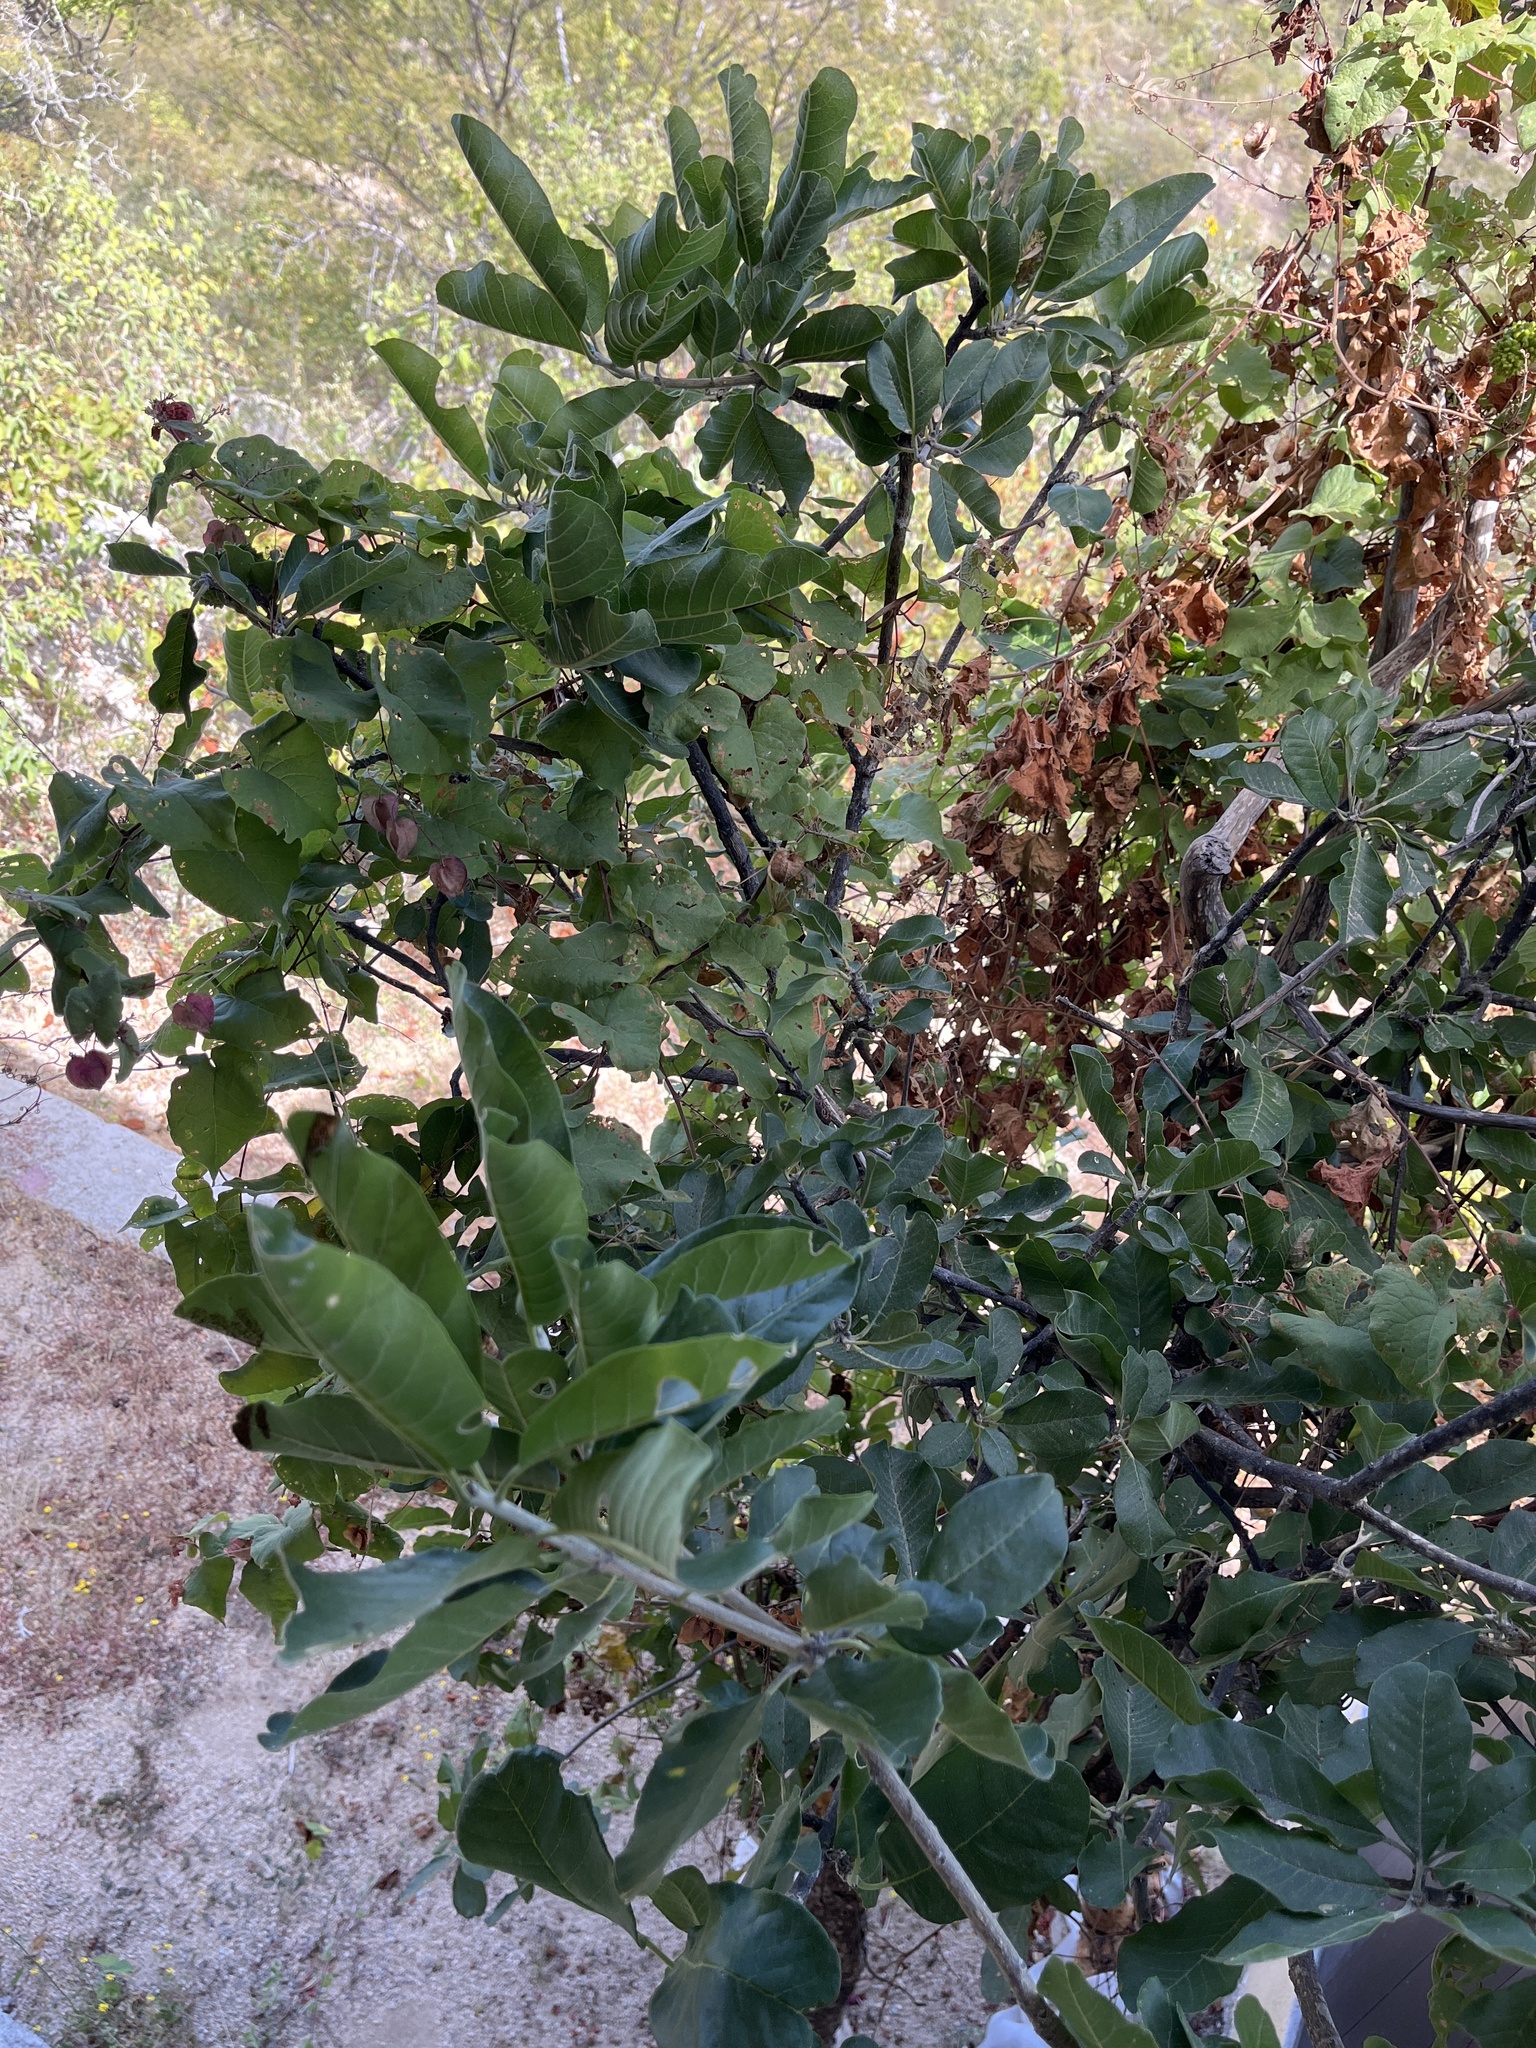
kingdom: Plantae
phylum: Tracheophyta
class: Magnoliopsida
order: Sapindales
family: Rutaceae
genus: Esenbeckia
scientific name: Esenbeckia flava
